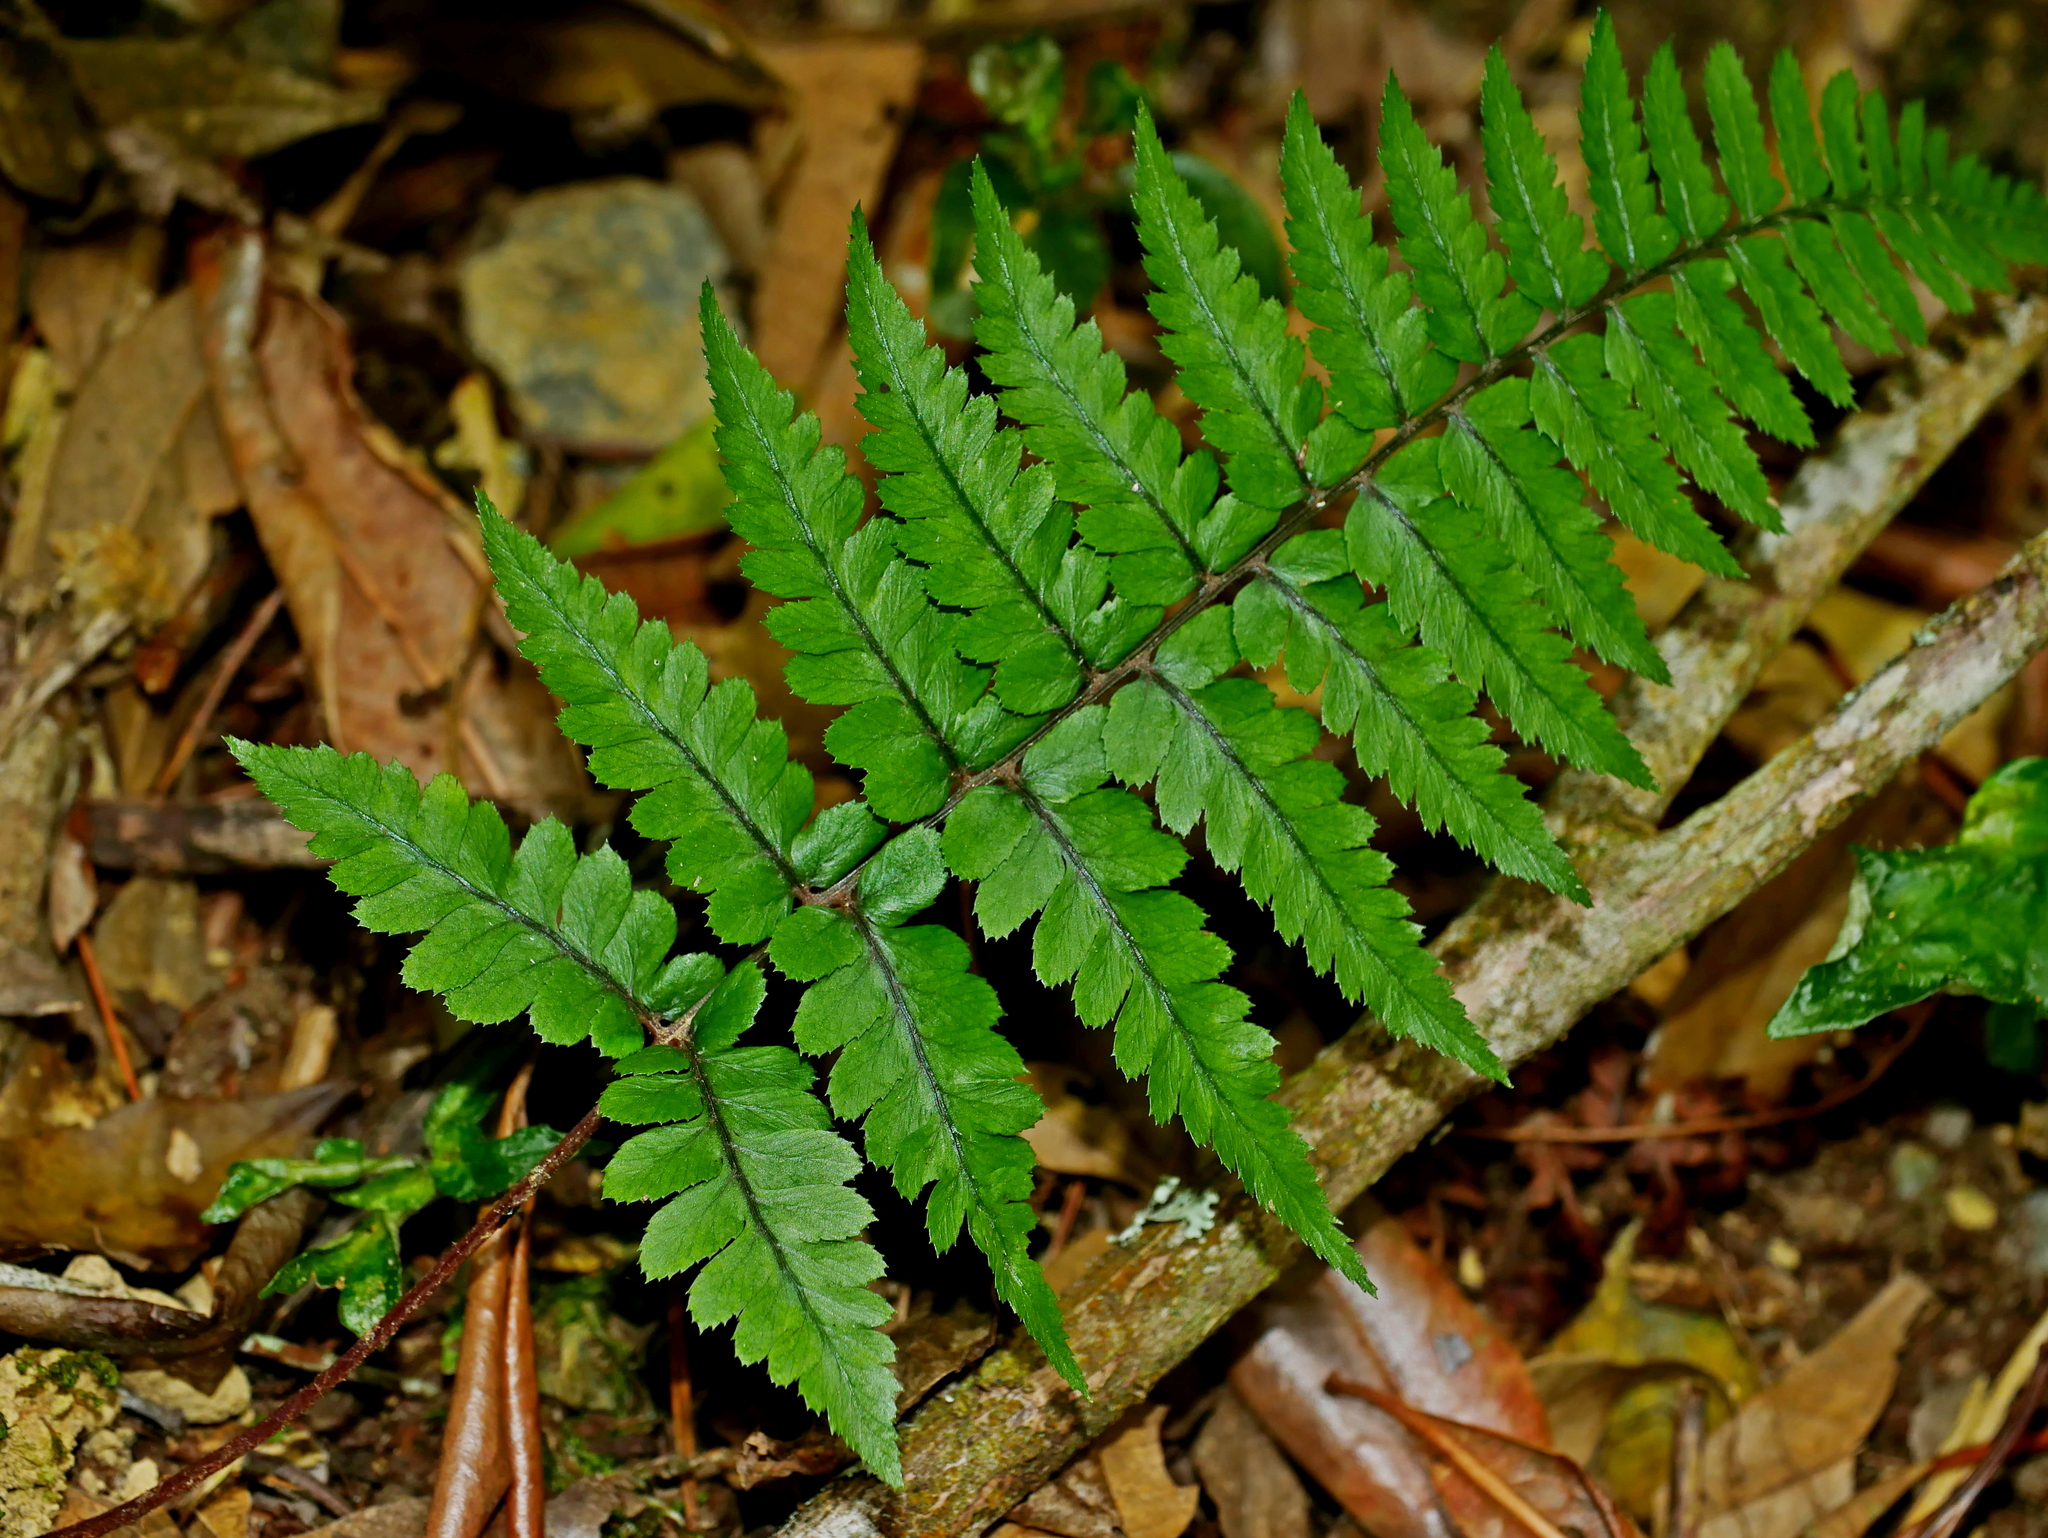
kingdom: Plantae
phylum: Tracheophyta
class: Polypodiopsida
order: Polypodiales
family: Athyriaceae
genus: Athyrium
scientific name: Athyrium leiopodum
